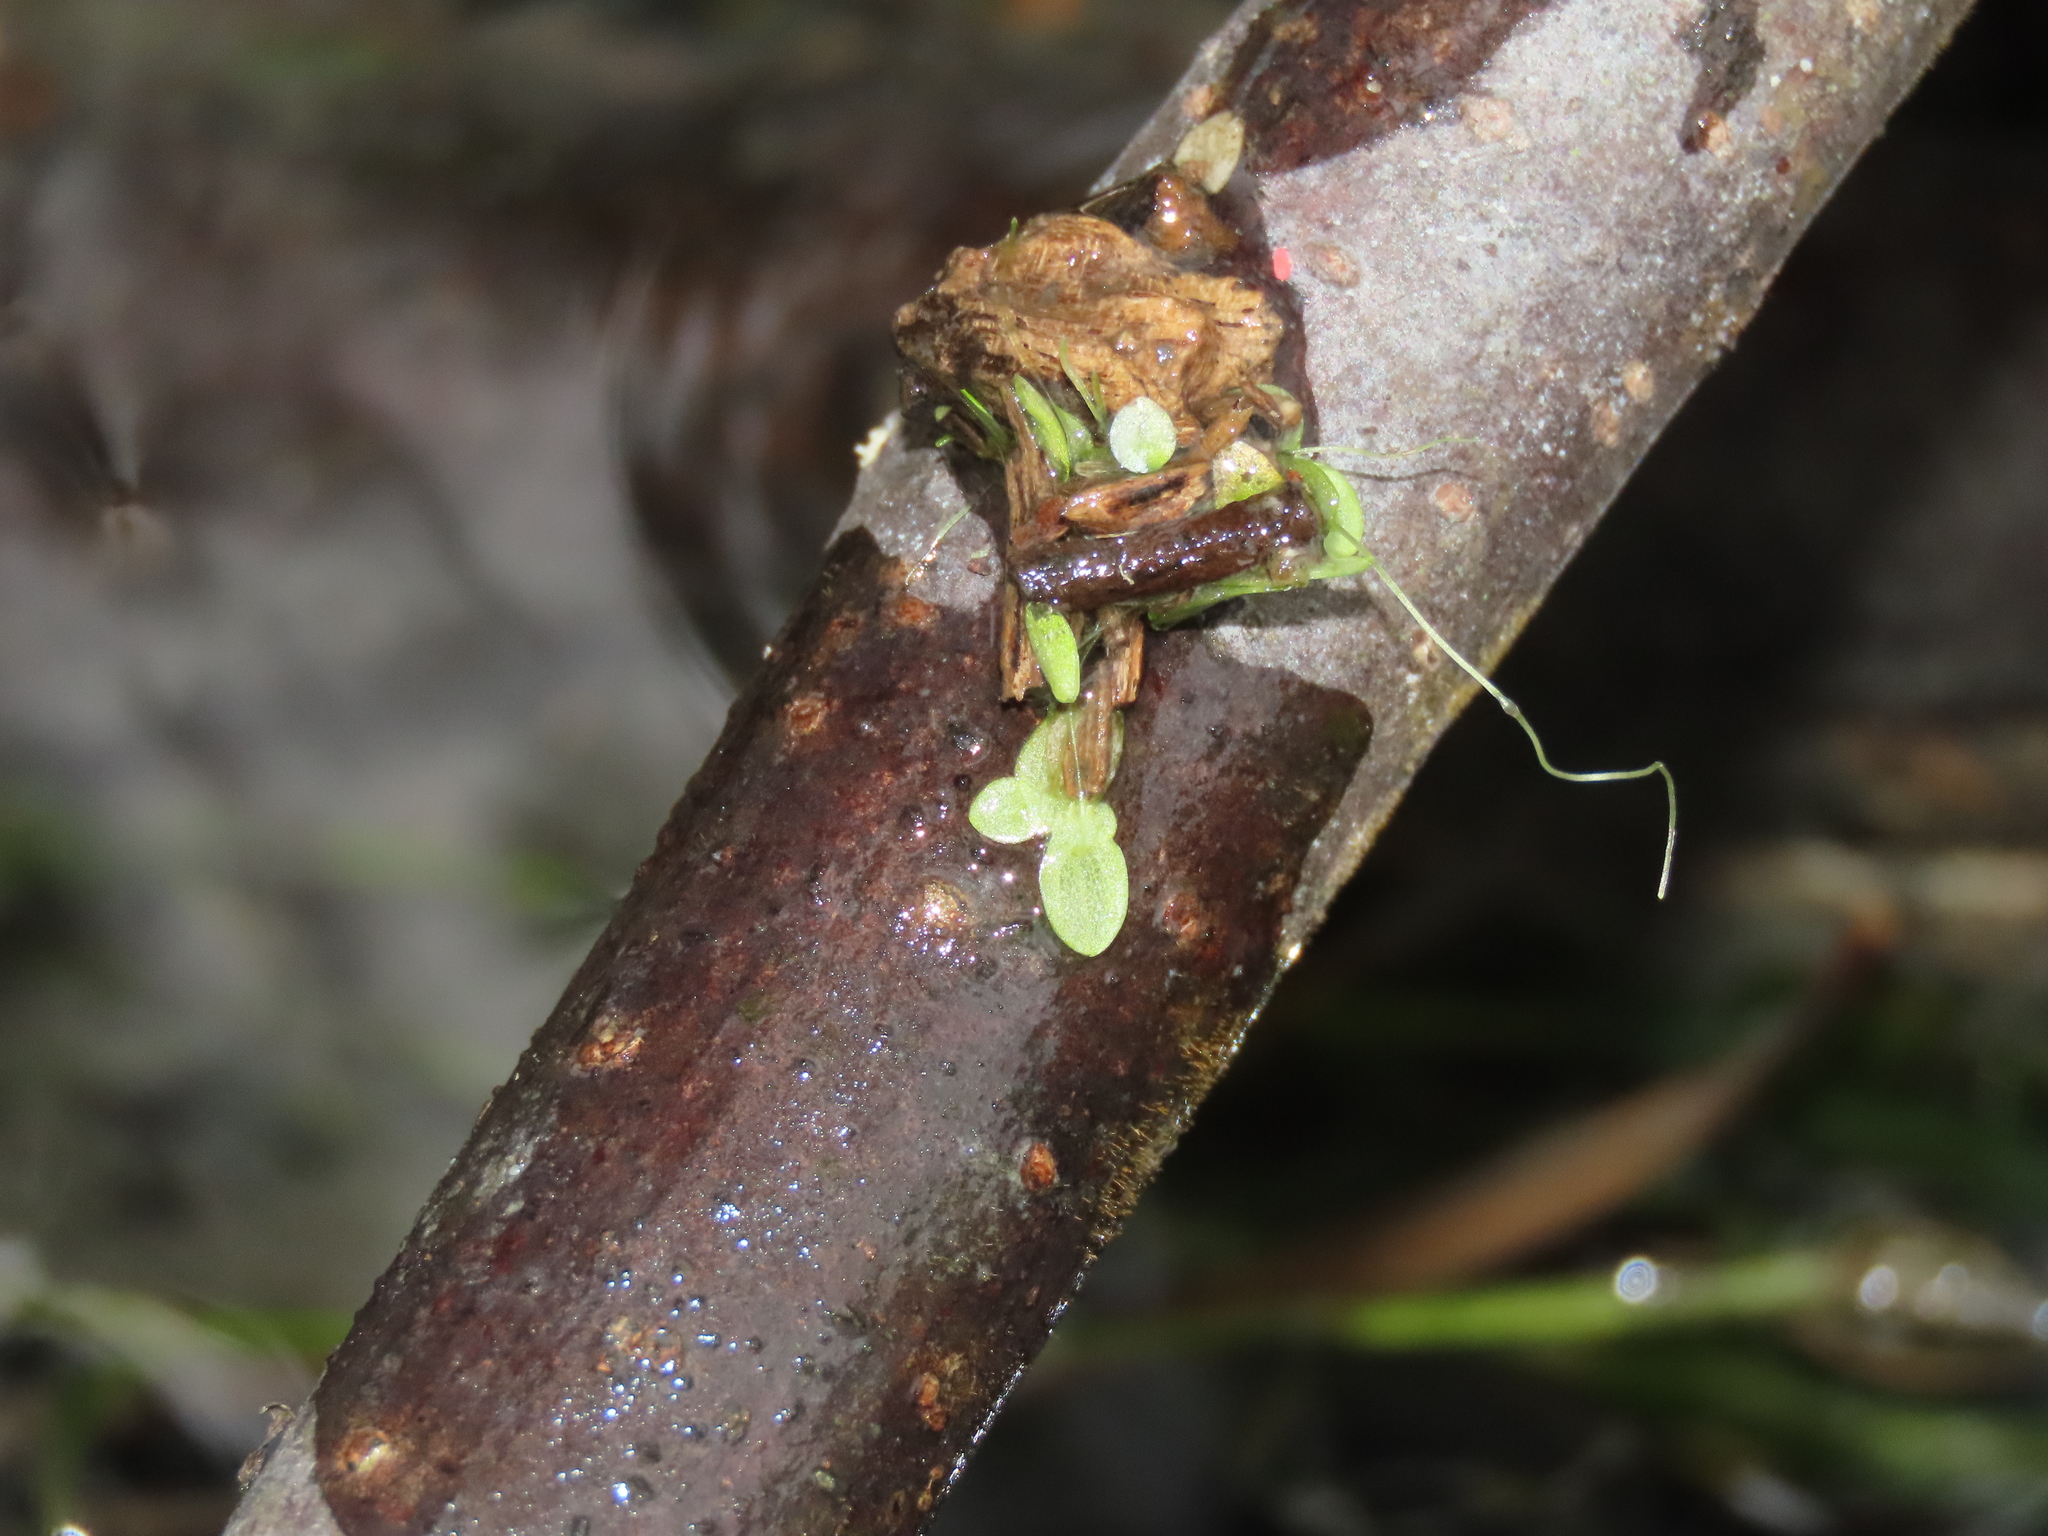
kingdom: Plantae
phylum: Tracheophyta
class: Liliopsida
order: Alismatales
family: Araceae
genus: Lemna
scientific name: Lemna aequinoctialis
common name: Duckweed
